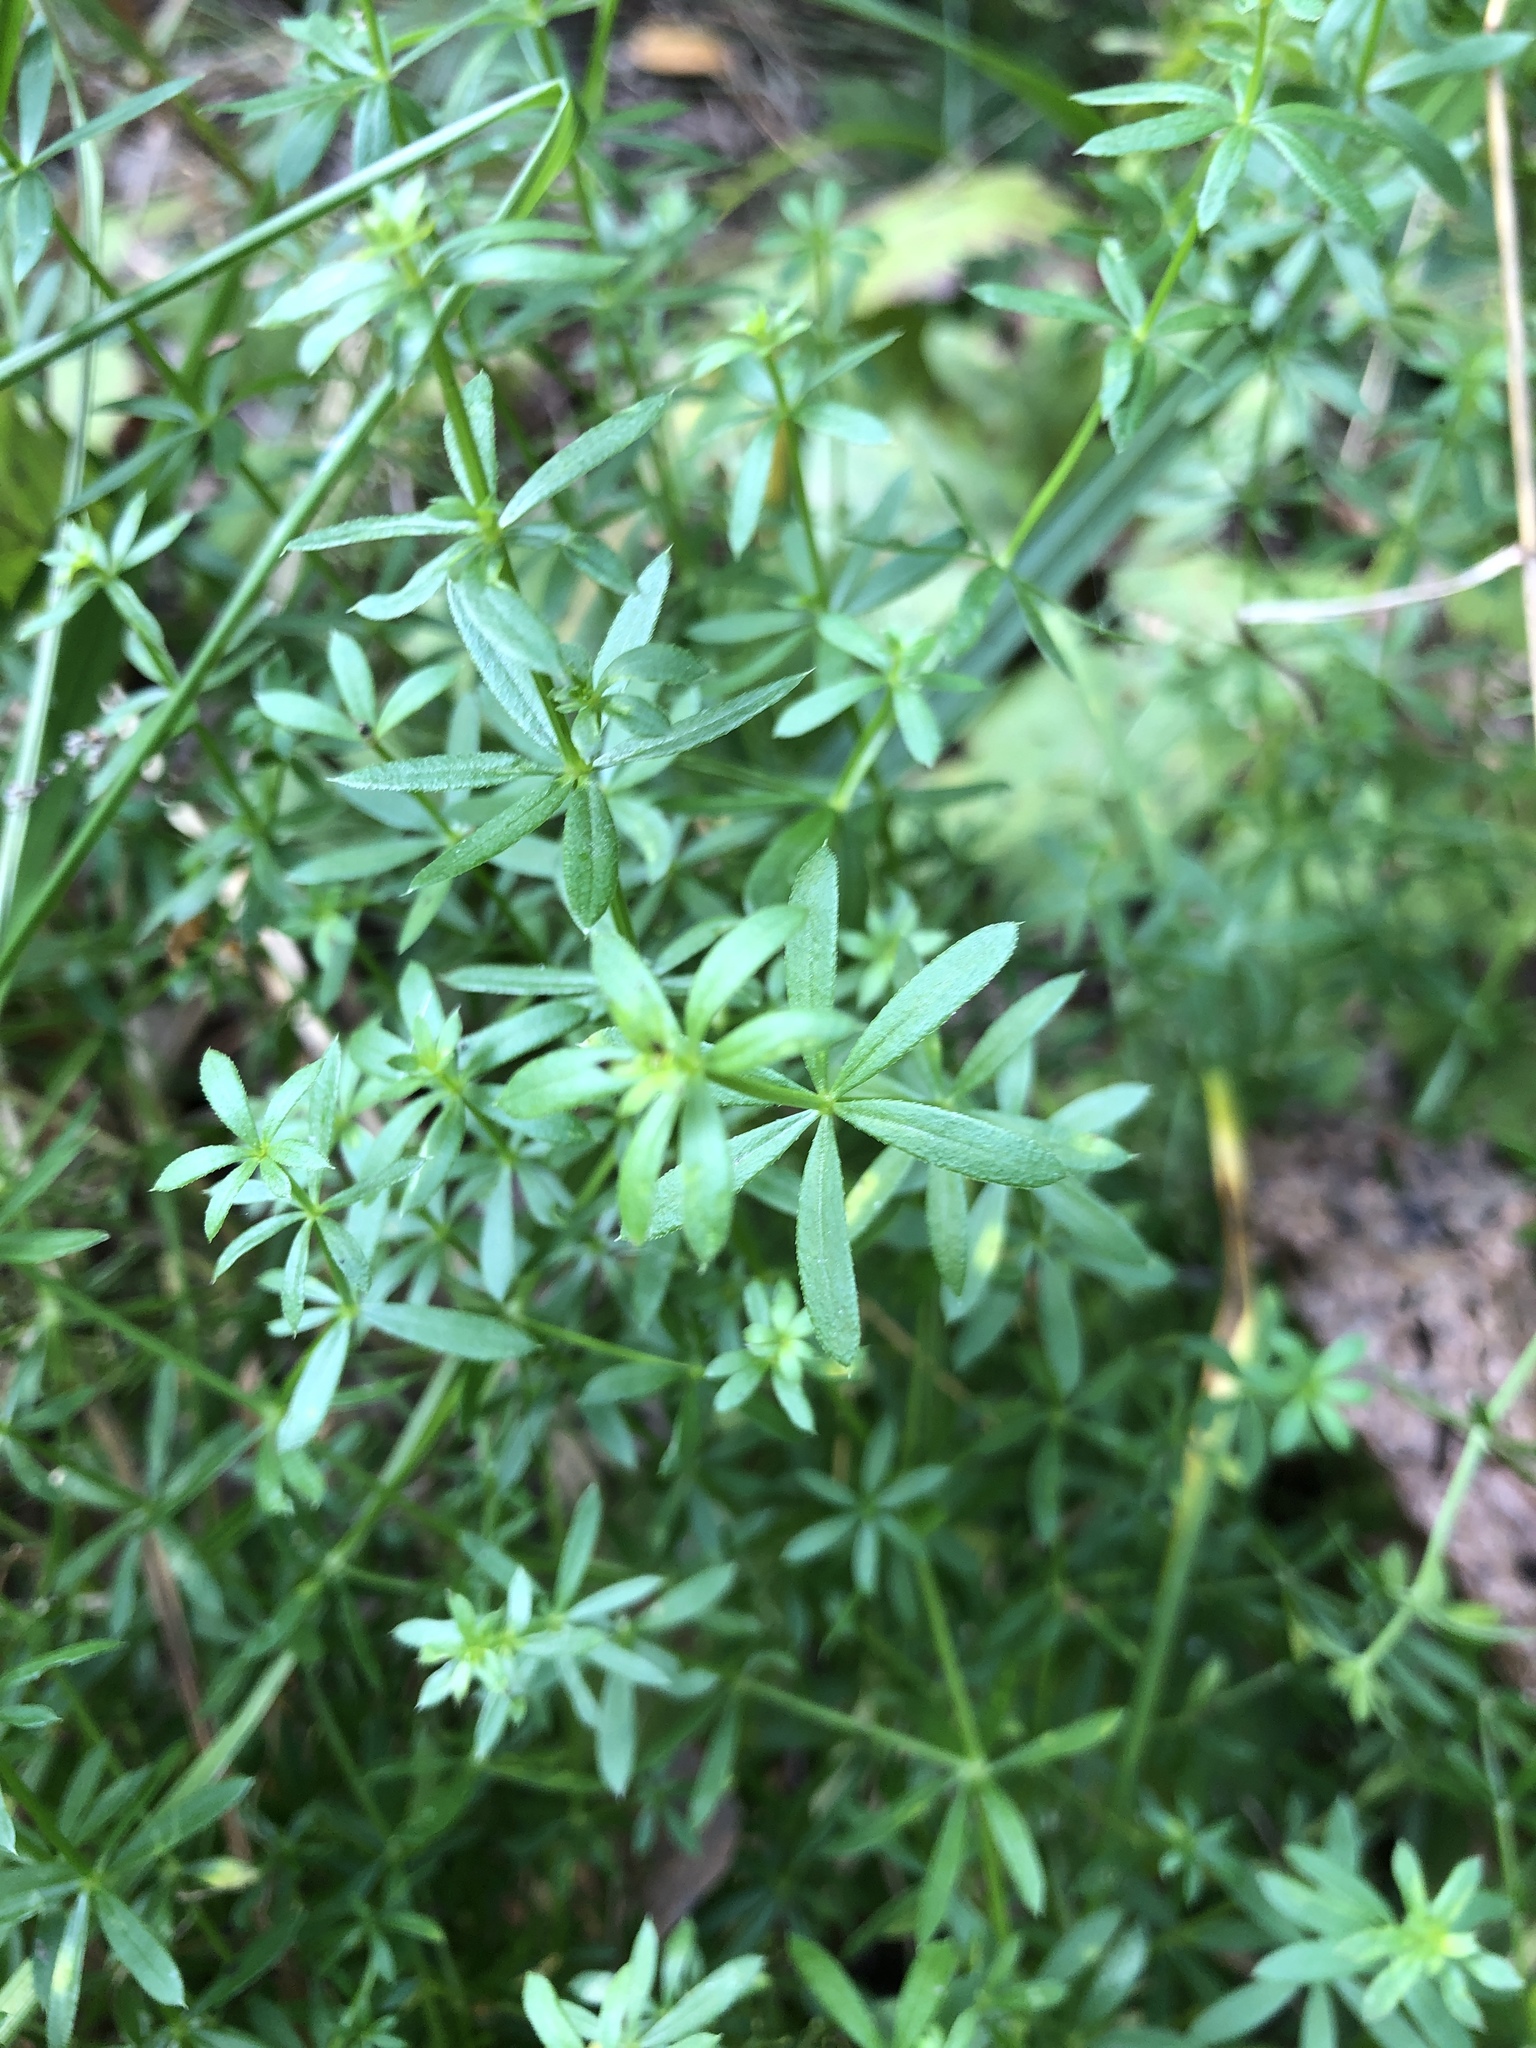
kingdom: Plantae
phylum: Tracheophyta
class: Magnoliopsida
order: Gentianales
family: Rubiaceae
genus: Galium
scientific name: Galium mollugo
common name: Hedge bedstraw
